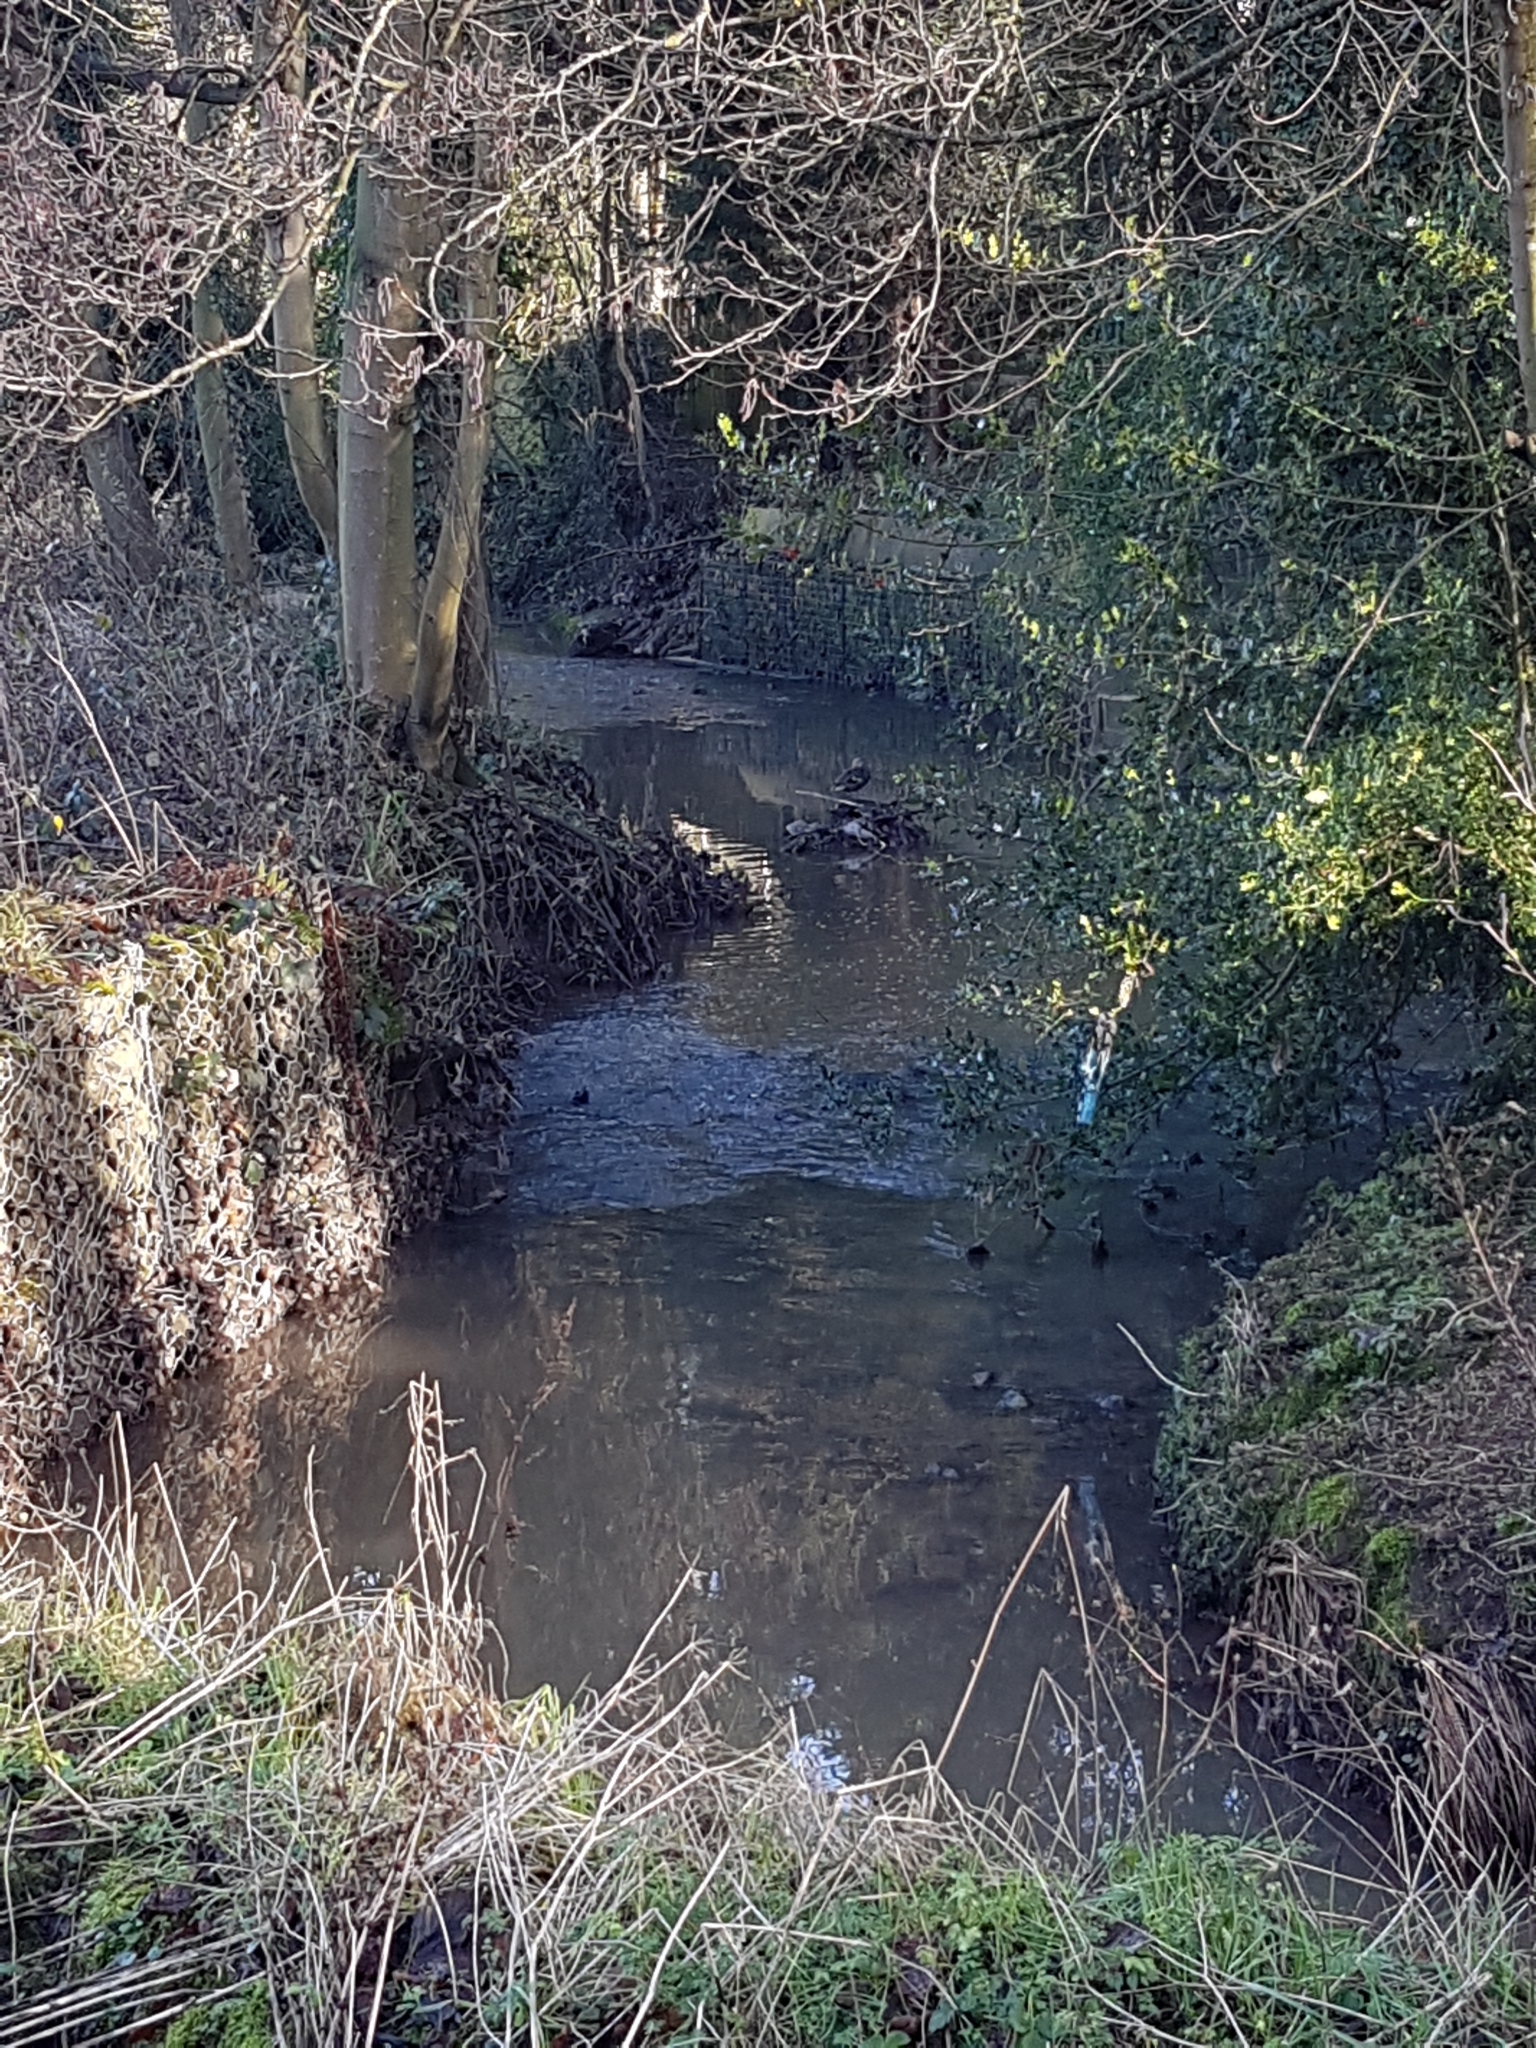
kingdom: Animalia
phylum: Chordata
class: Aves
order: Anseriformes
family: Anatidae
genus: Anas
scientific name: Anas platyrhynchos
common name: Mallard
